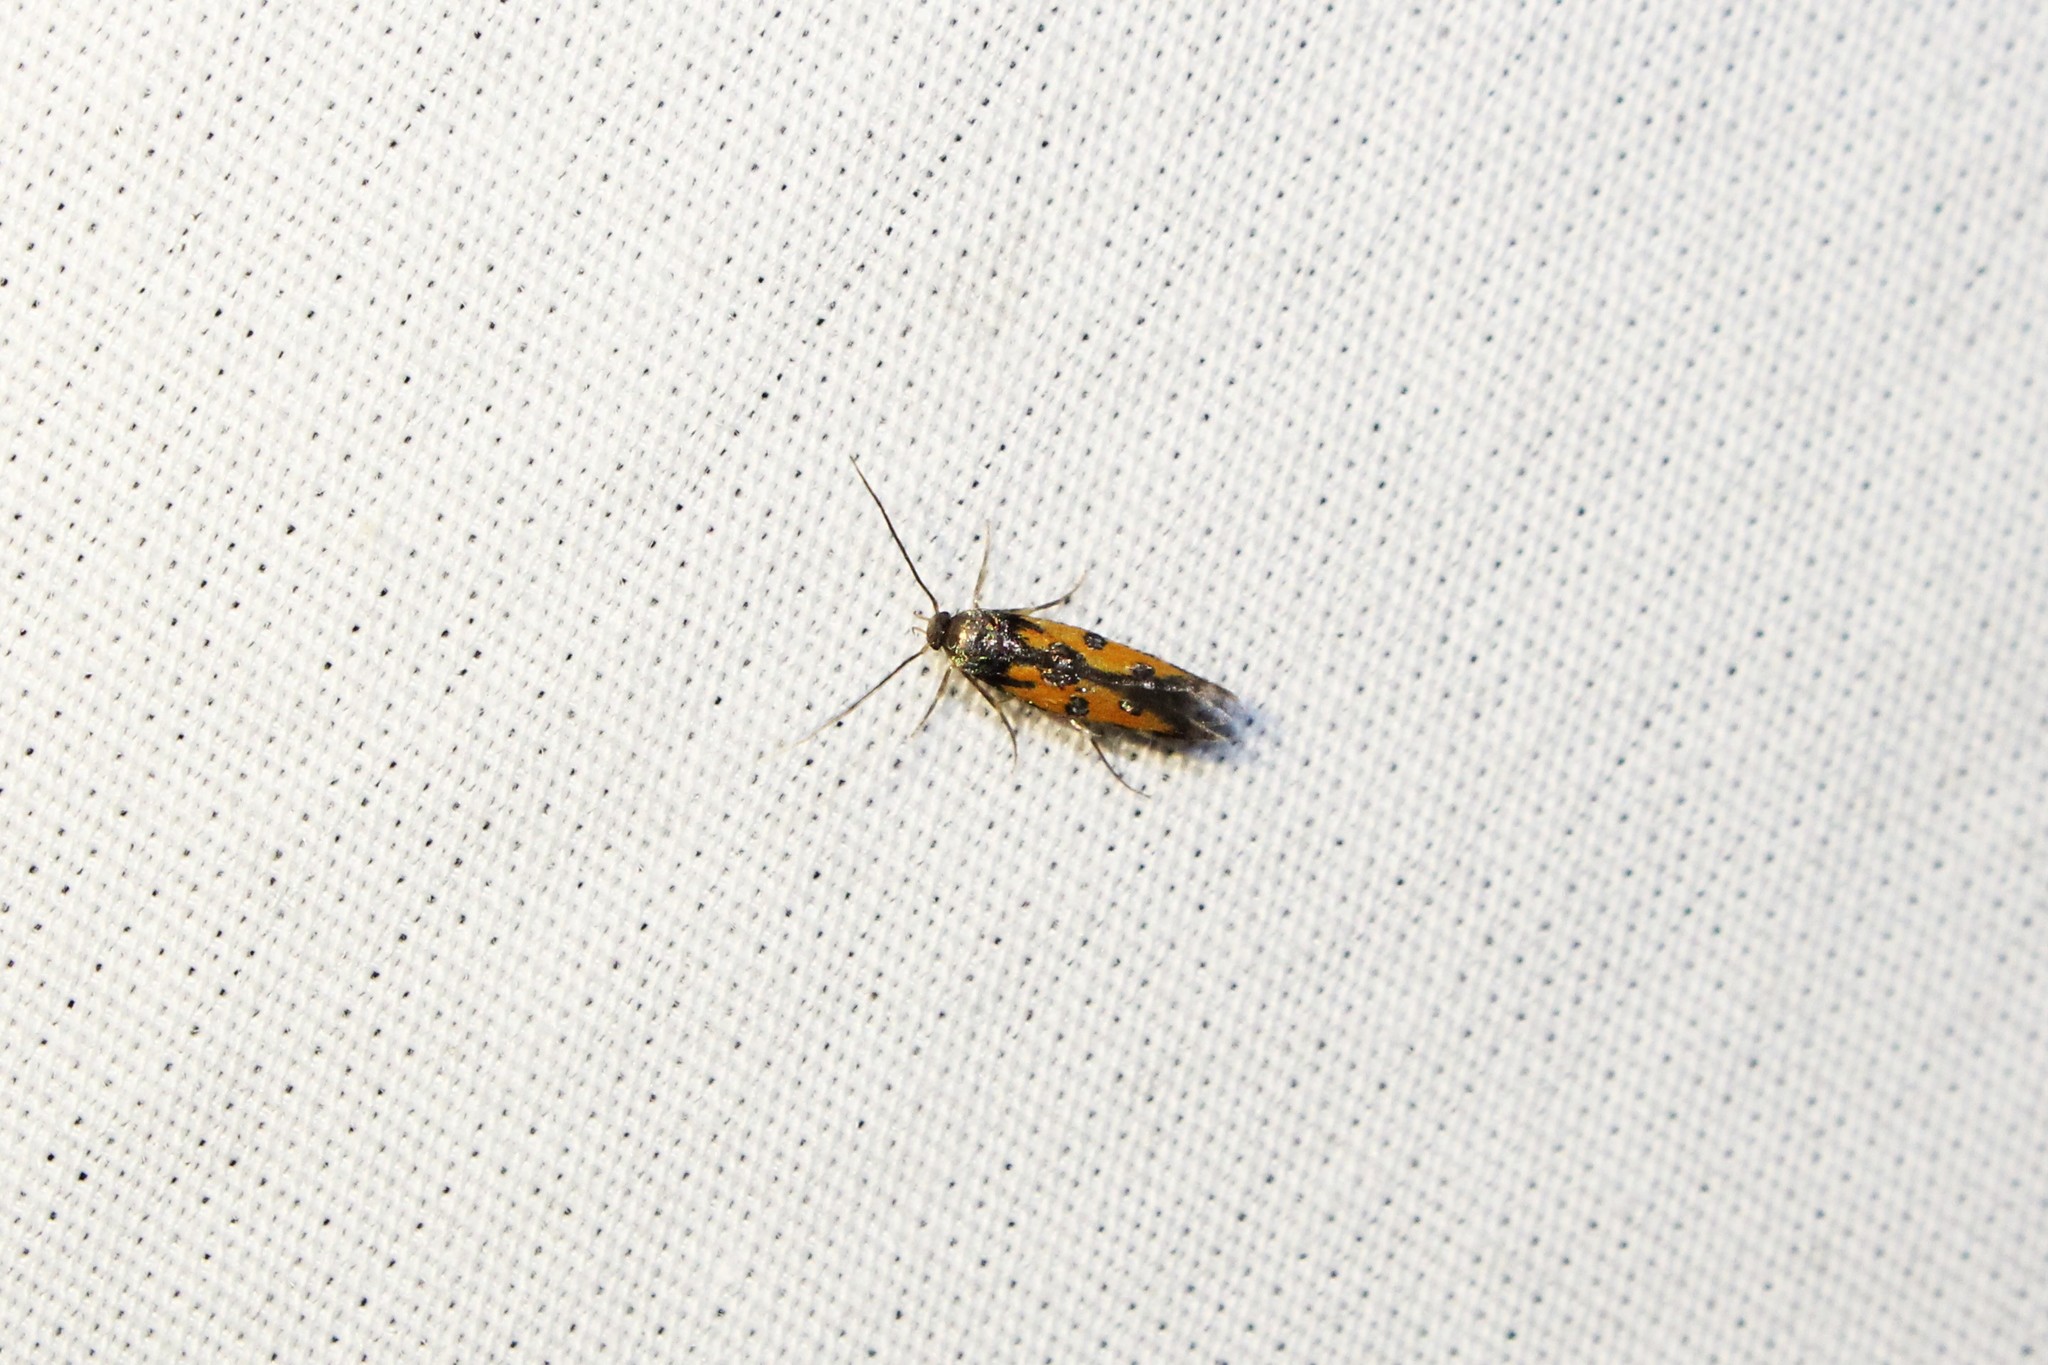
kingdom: Animalia
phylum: Arthropoda
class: Insecta
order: Lepidoptera
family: Elachistidae
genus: Chrysoclista
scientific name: Chrysoclista linneela
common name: Lime cosmet
